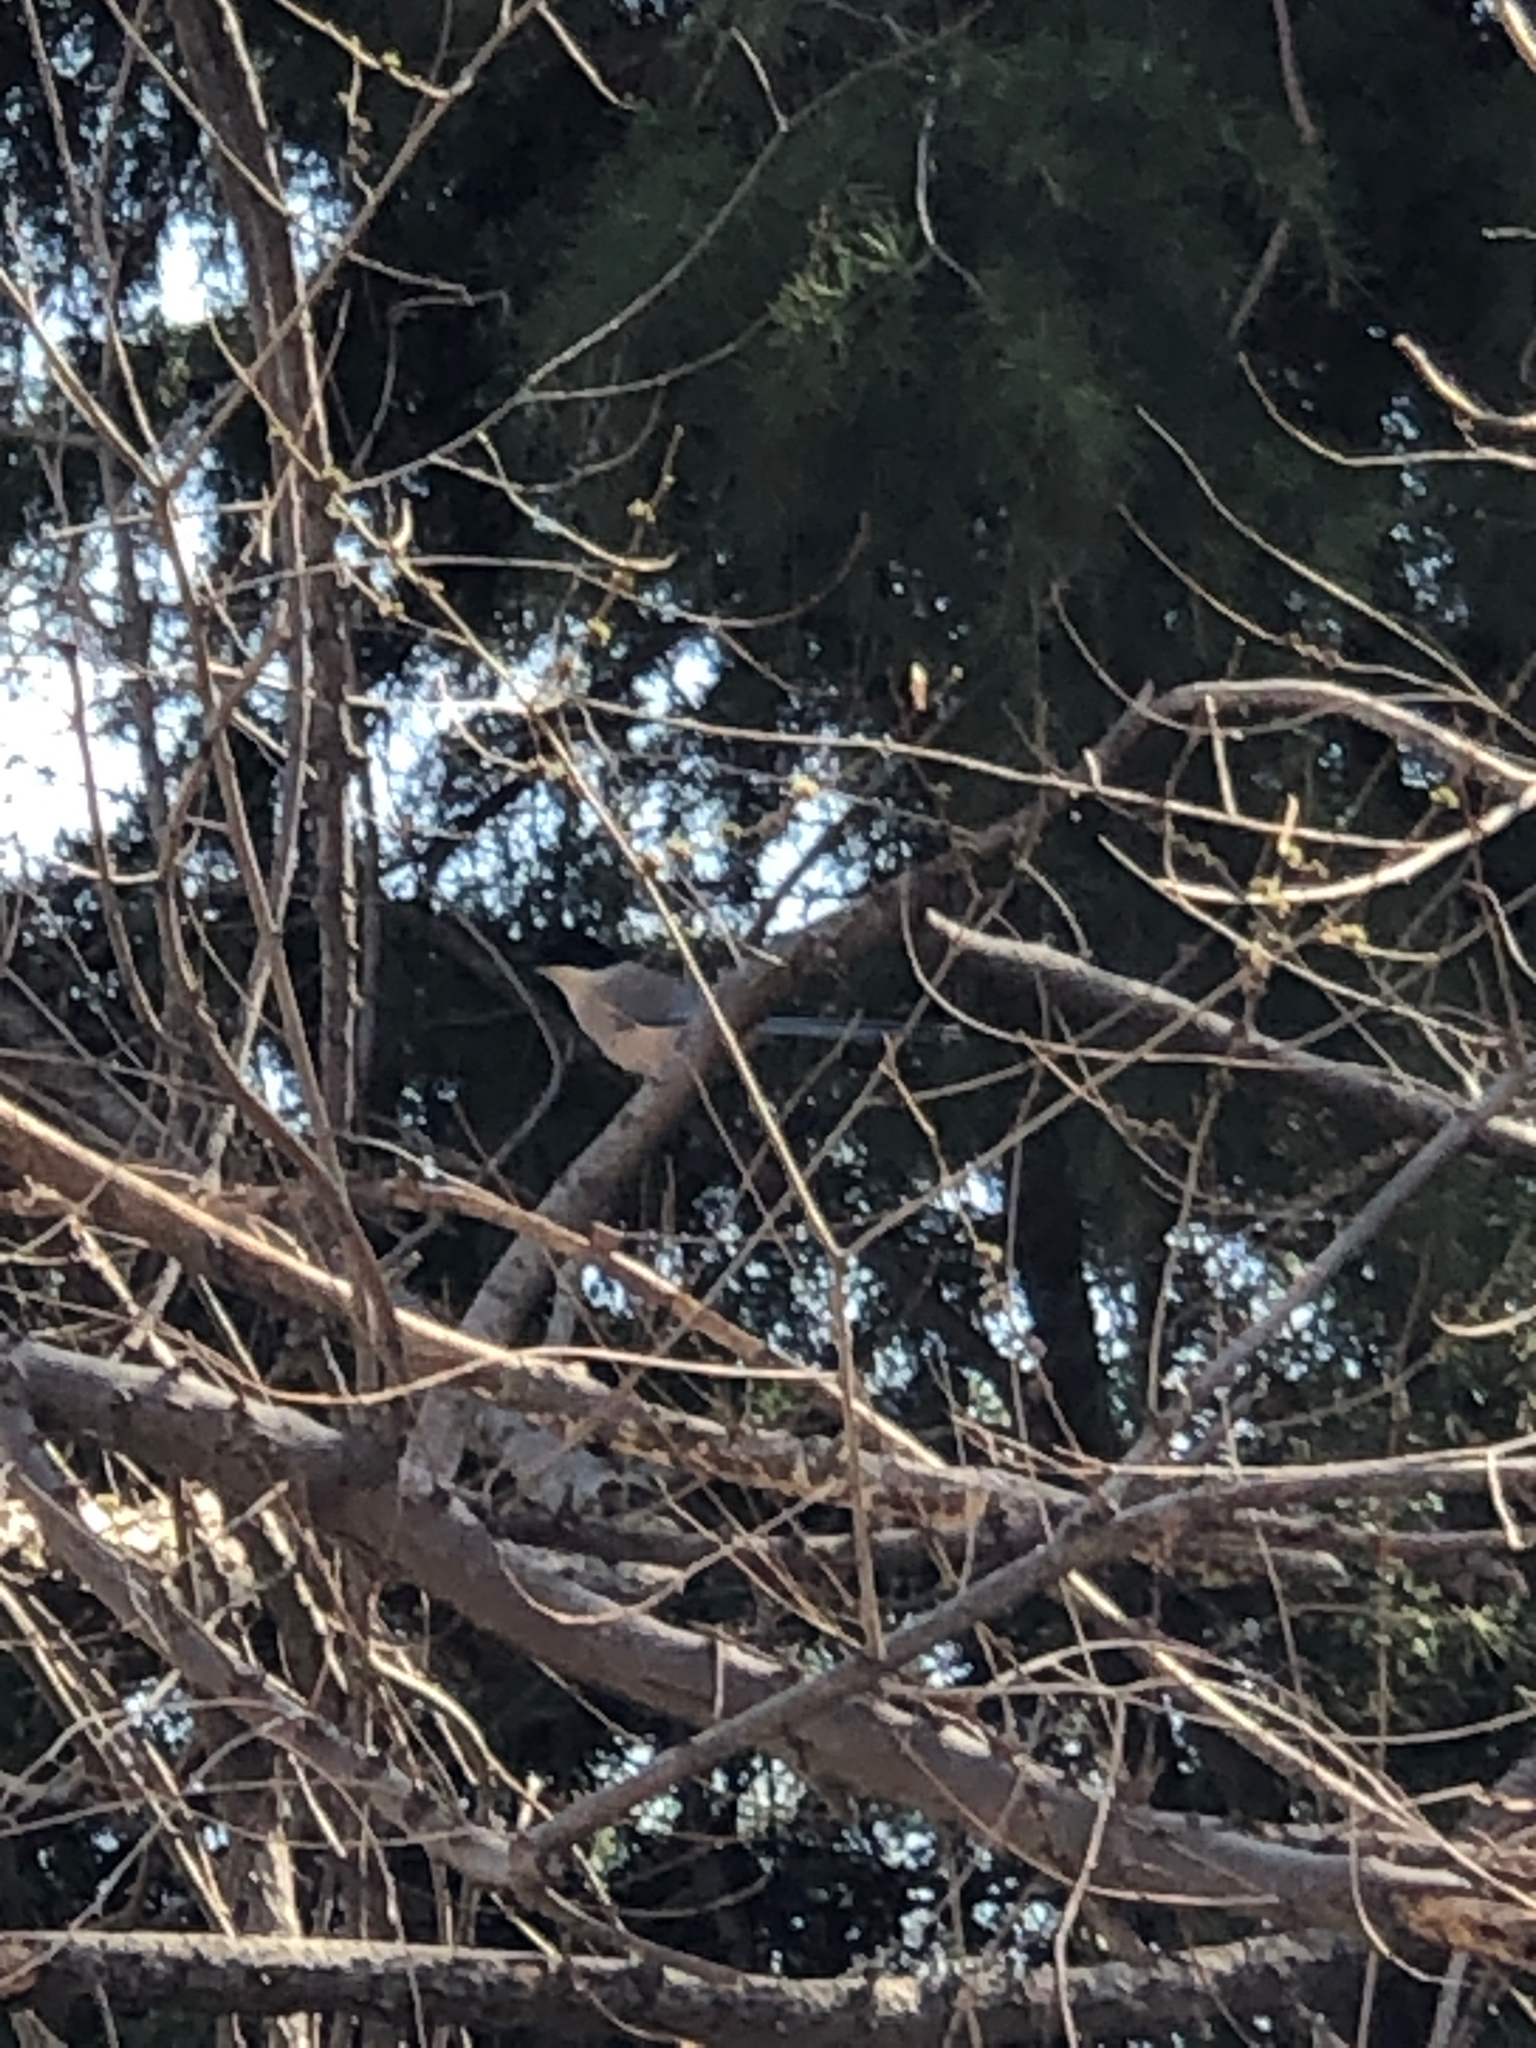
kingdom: Animalia
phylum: Chordata
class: Aves
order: Passeriformes
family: Corvidae
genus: Cyanopica
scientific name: Cyanopica cyanus
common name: Azure-winged magpie
